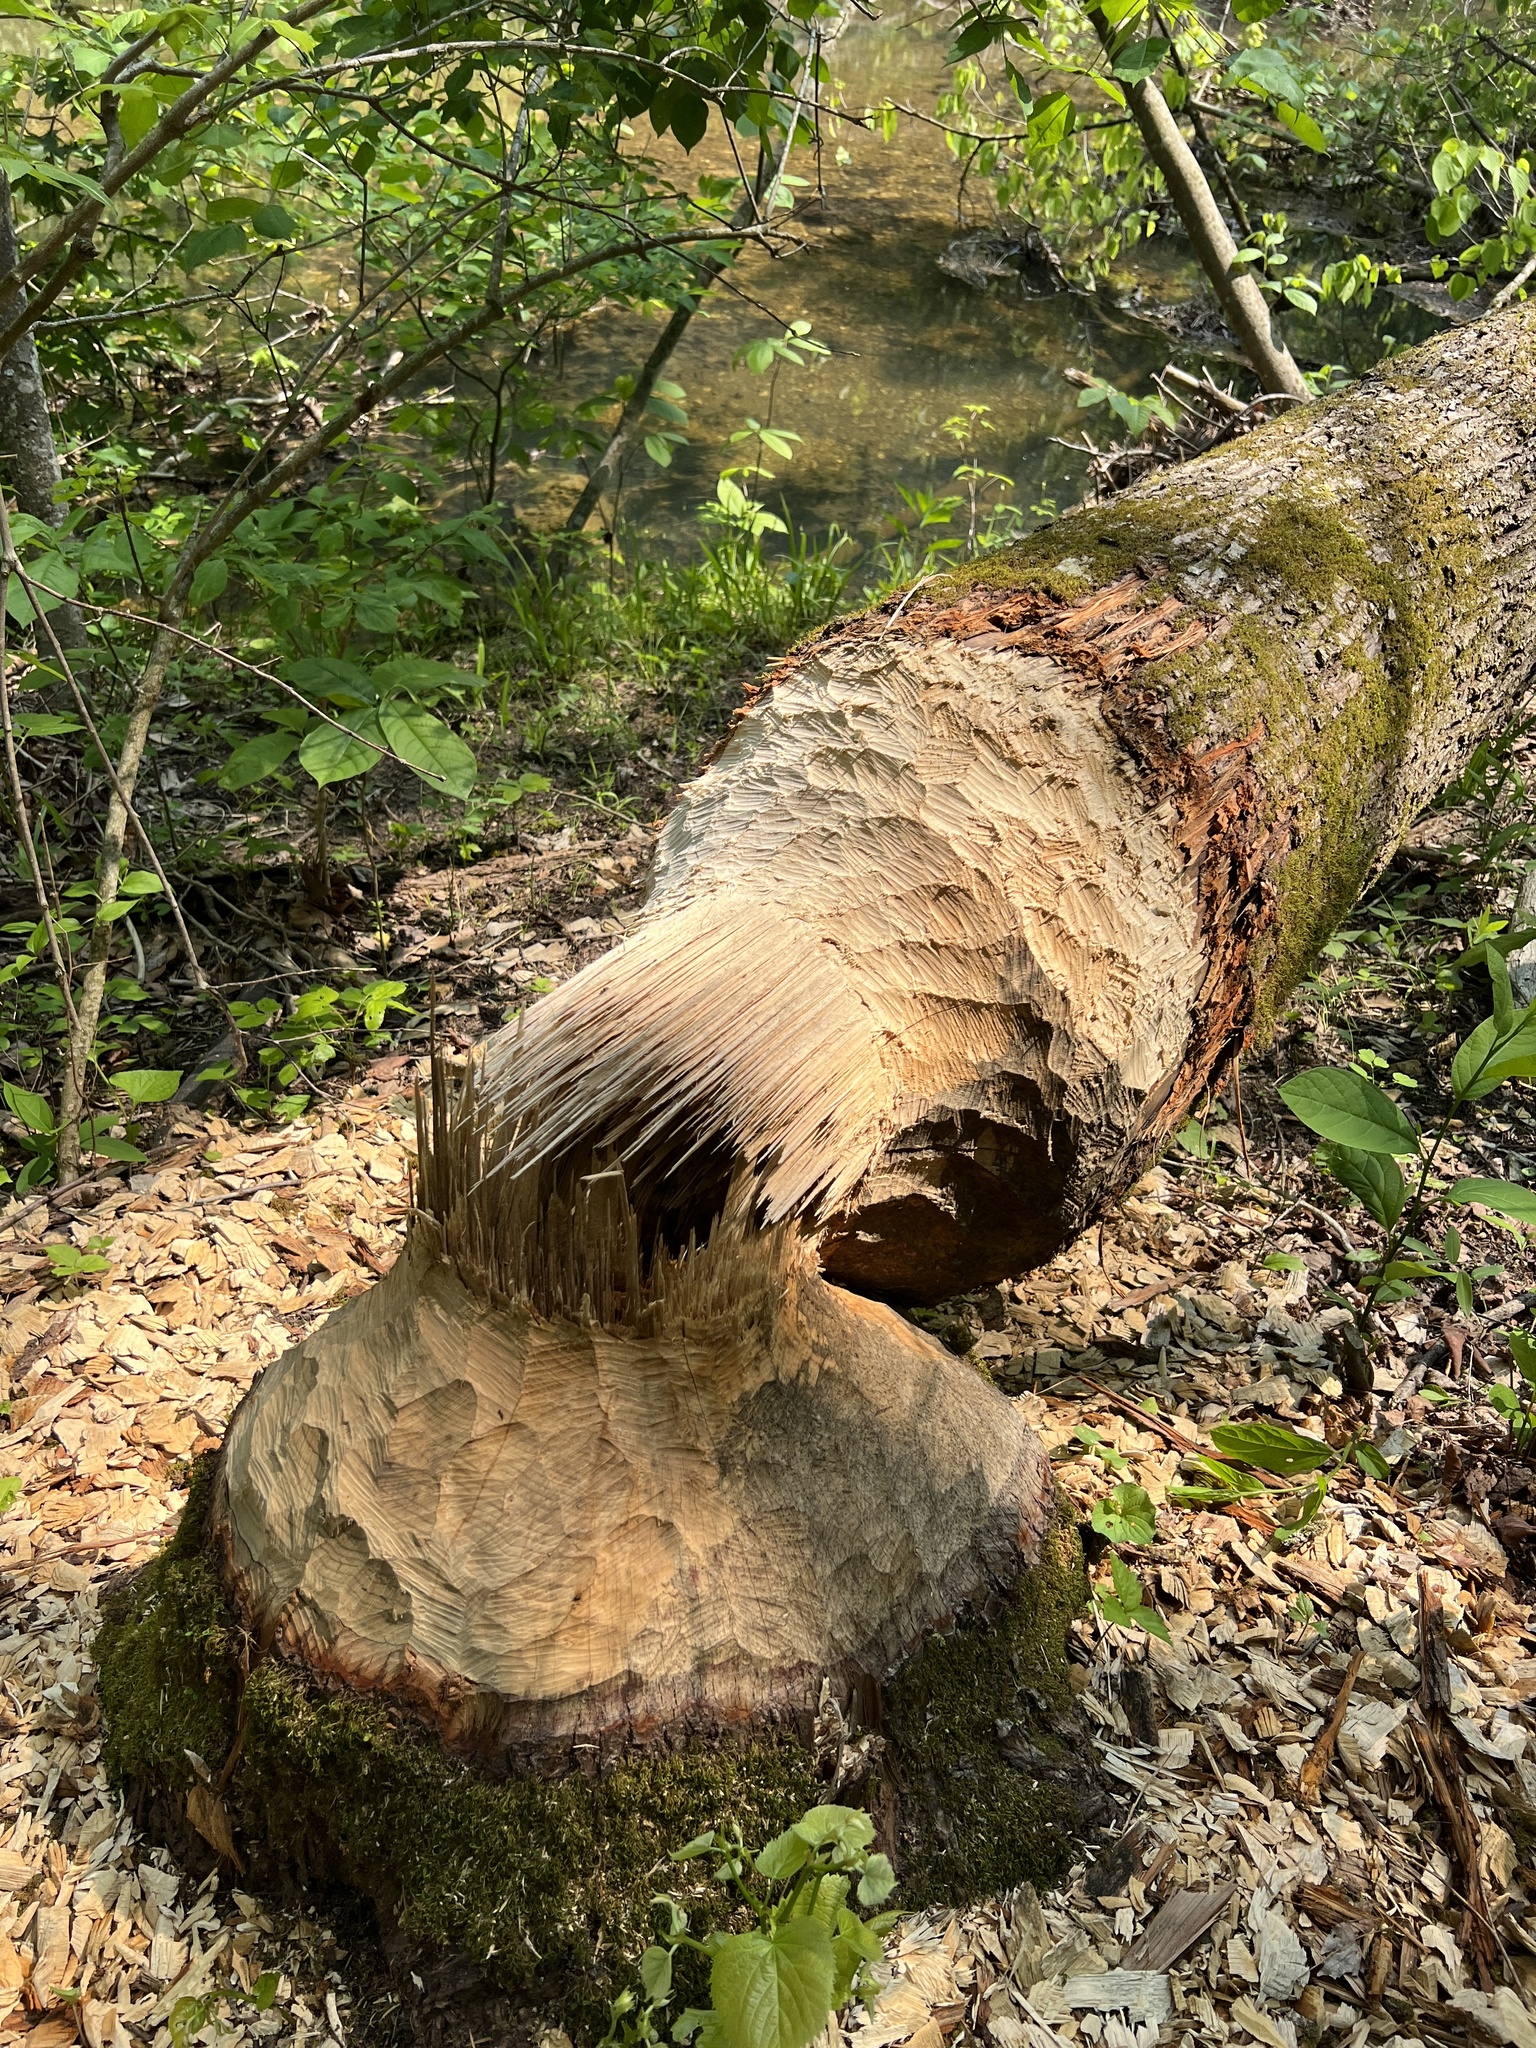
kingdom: Animalia
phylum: Chordata
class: Mammalia
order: Rodentia
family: Castoridae
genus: Castor
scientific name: Castor canadensis
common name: American beaver
